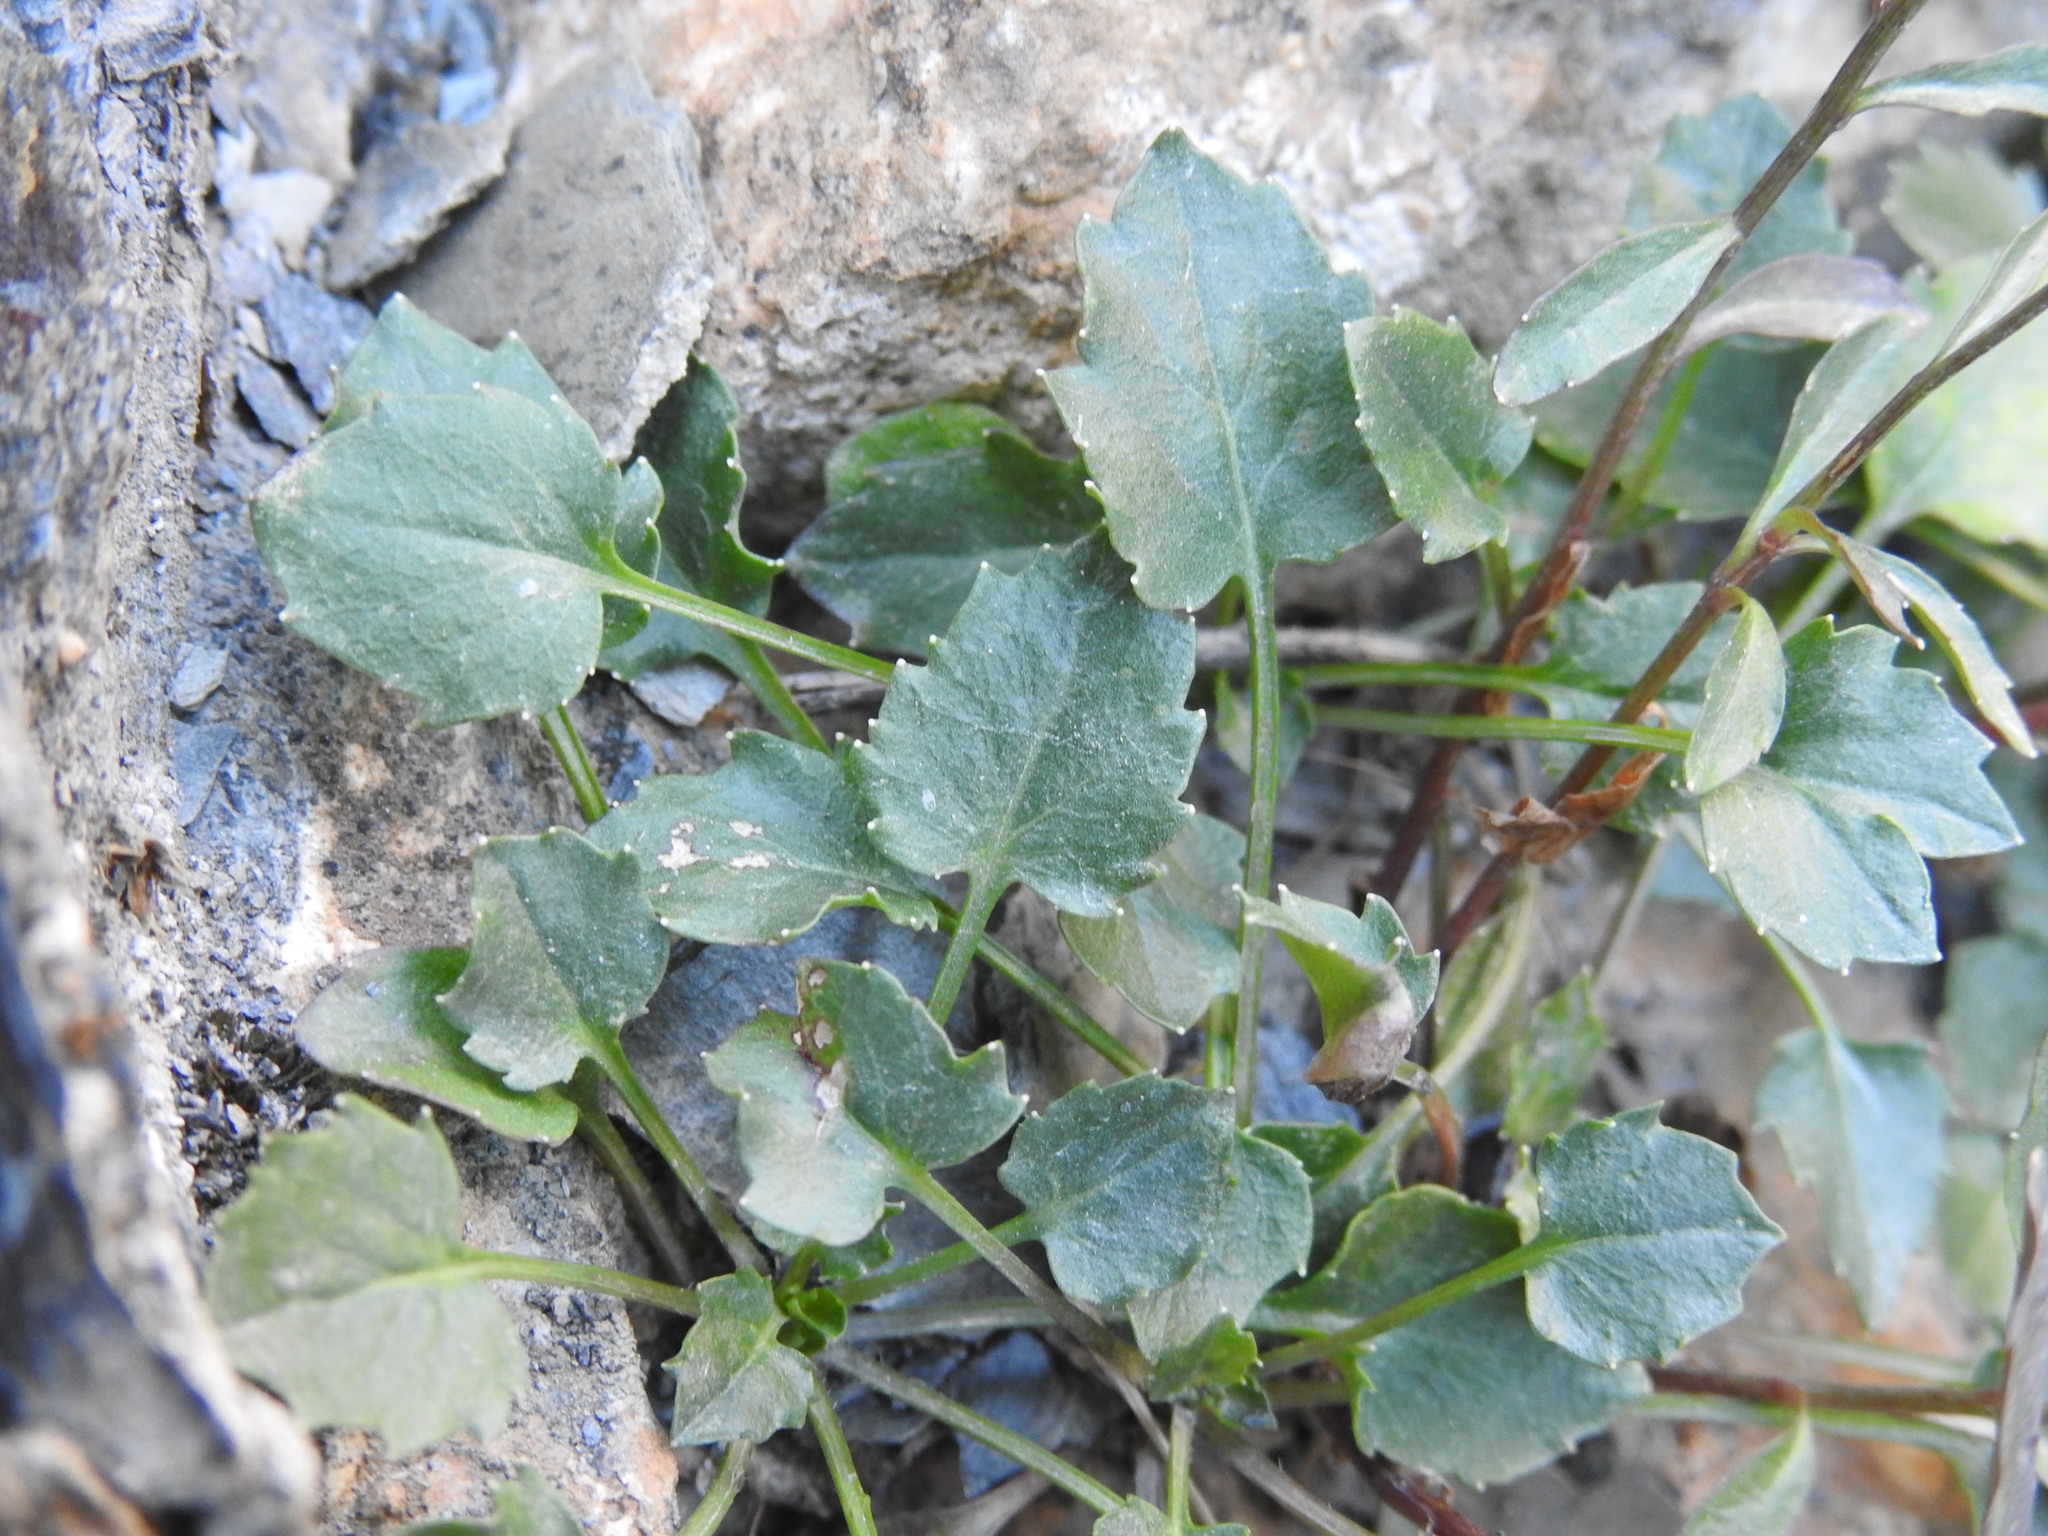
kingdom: Plantae
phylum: Tracheophyta
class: Magnoliopsida
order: Asterales
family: Campanulaceae
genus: Campanula
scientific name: Campanula cochleariifolia
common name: Fairies'-thimbles
